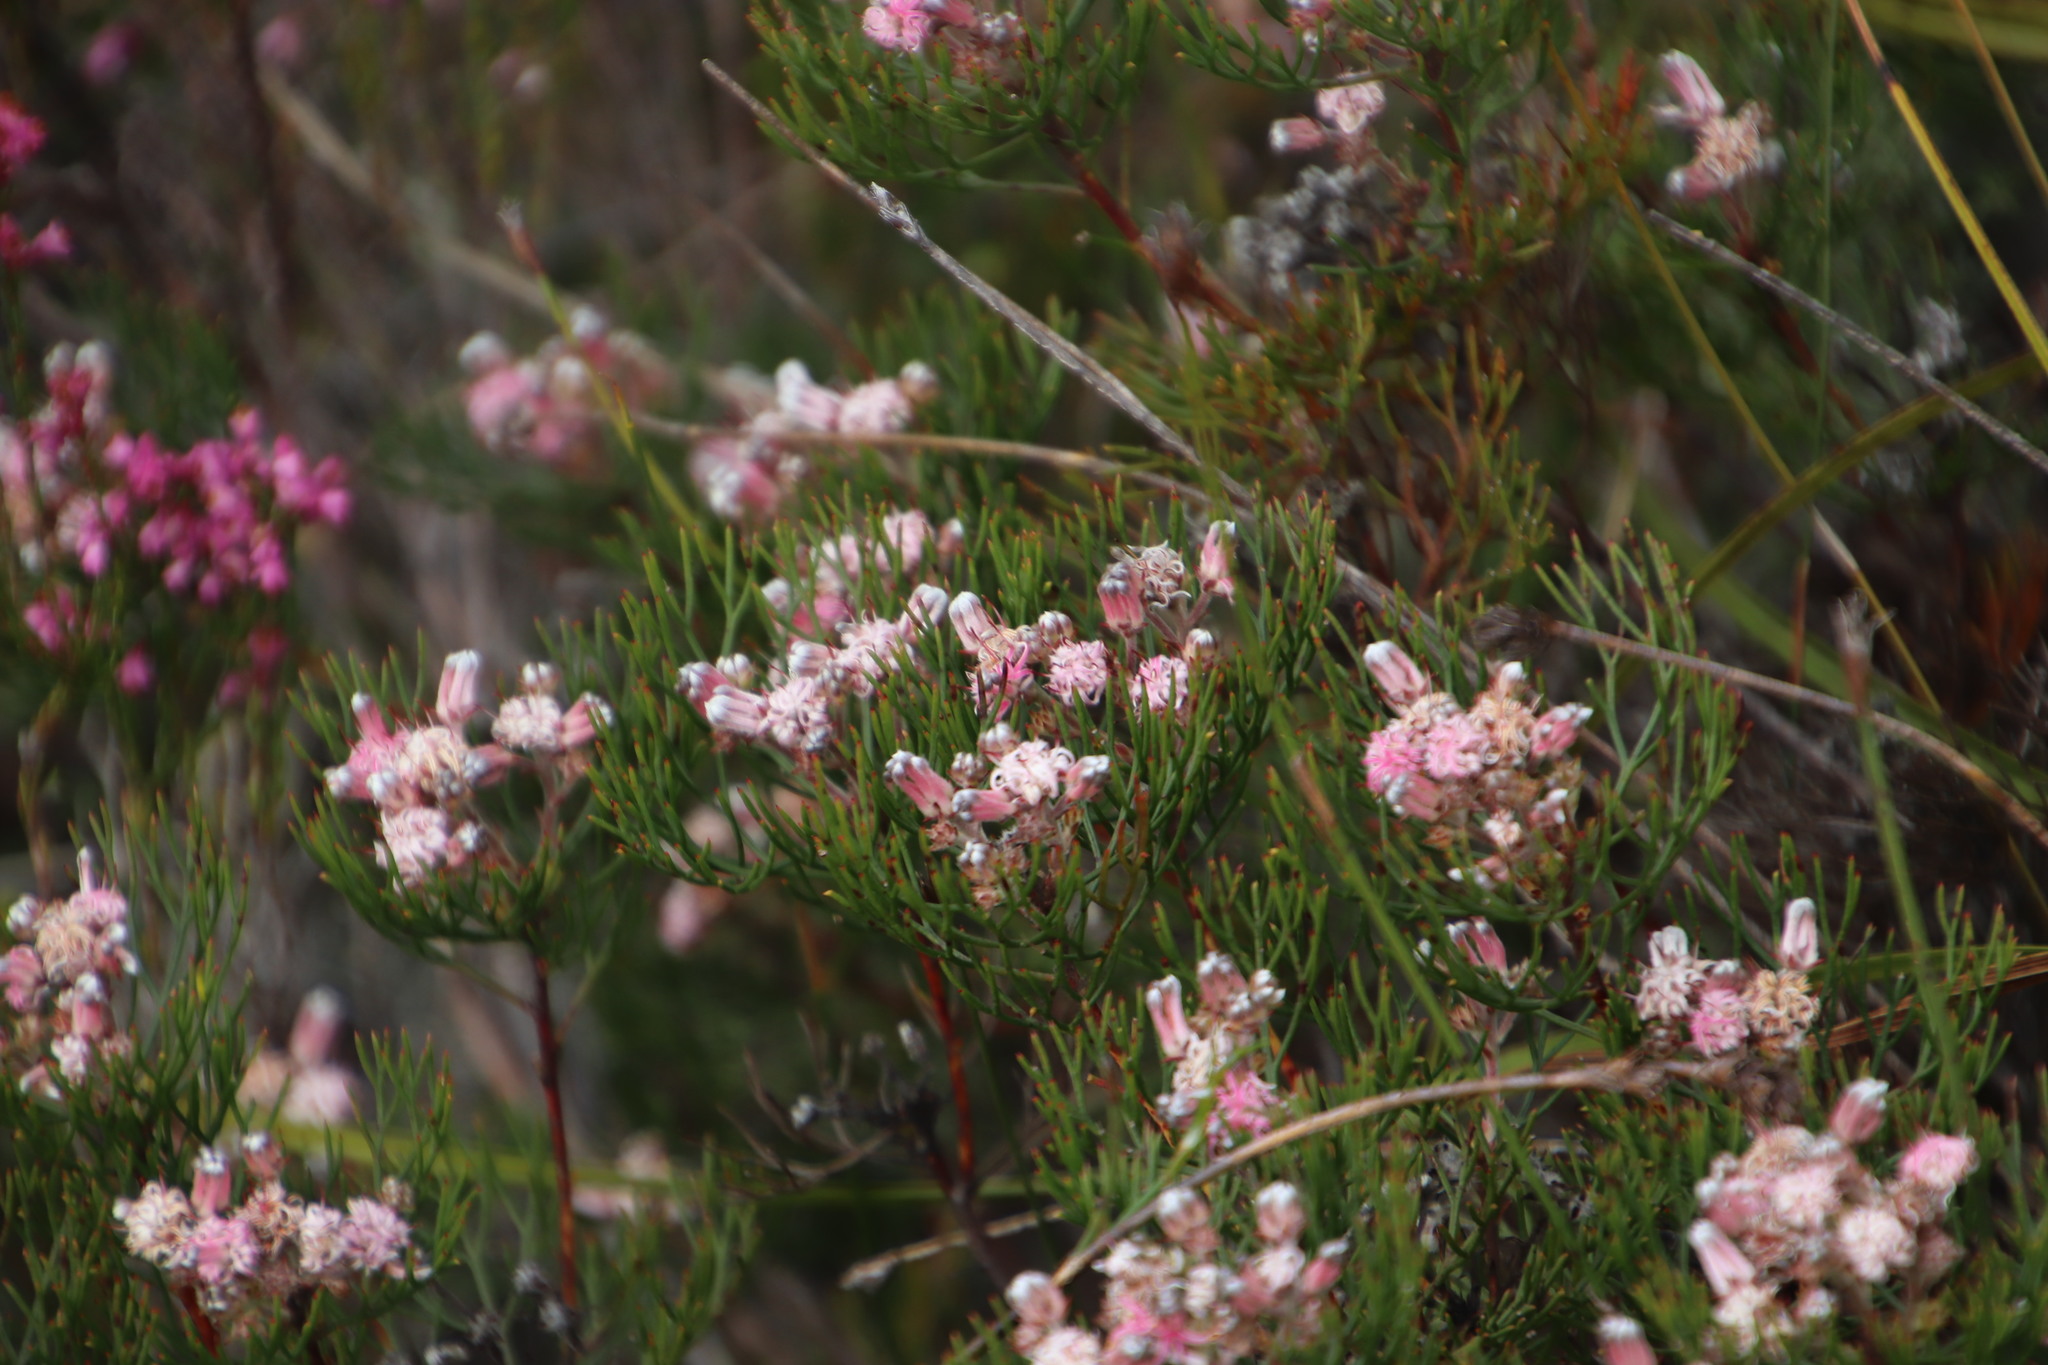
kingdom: Plantae
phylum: Tracheophyta
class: Magnoliopsida
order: Proteales
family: Proteaceae
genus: Serruria
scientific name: Serruria fasciflora
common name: Common pin spiderhead
